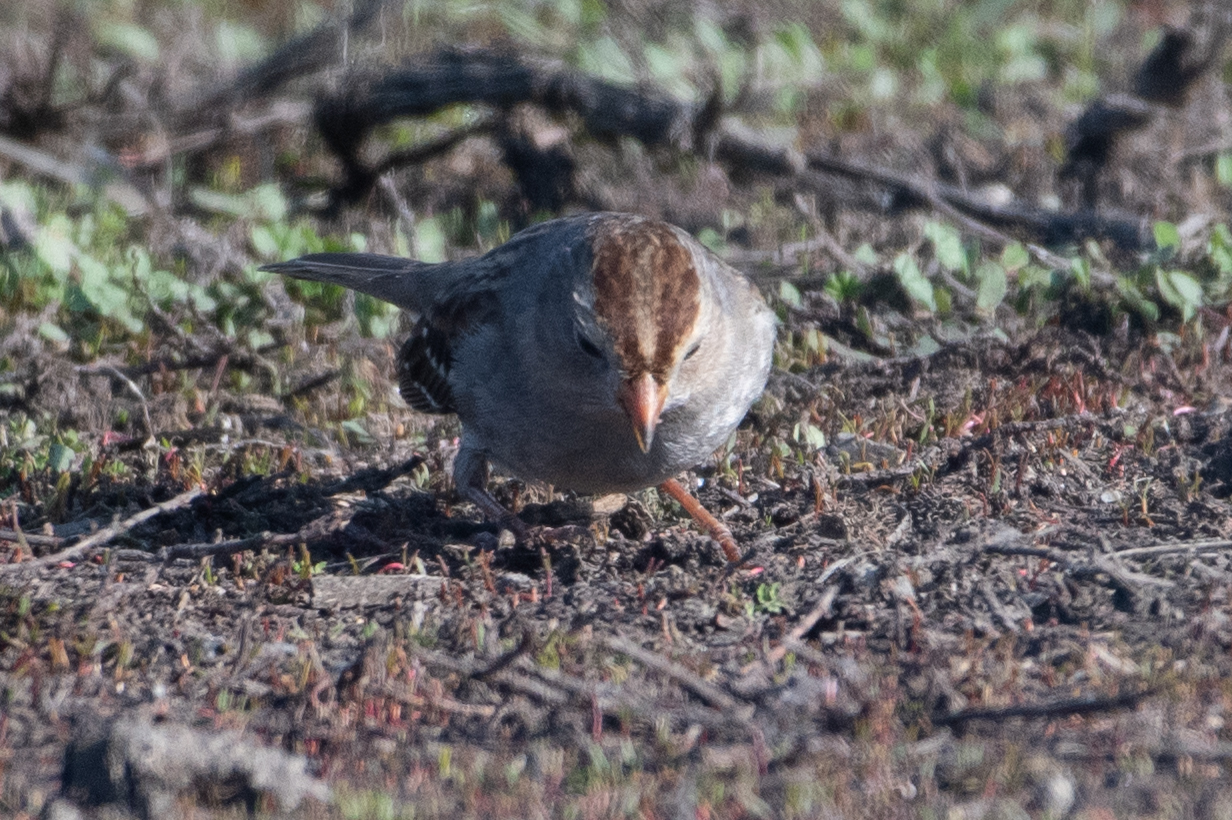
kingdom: Animalia
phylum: Chordata
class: Aves
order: Passeriformes
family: Passerellidae
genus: Zonotrichia
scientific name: Zonotrichia leucophrys
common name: White-crowned sparrow
